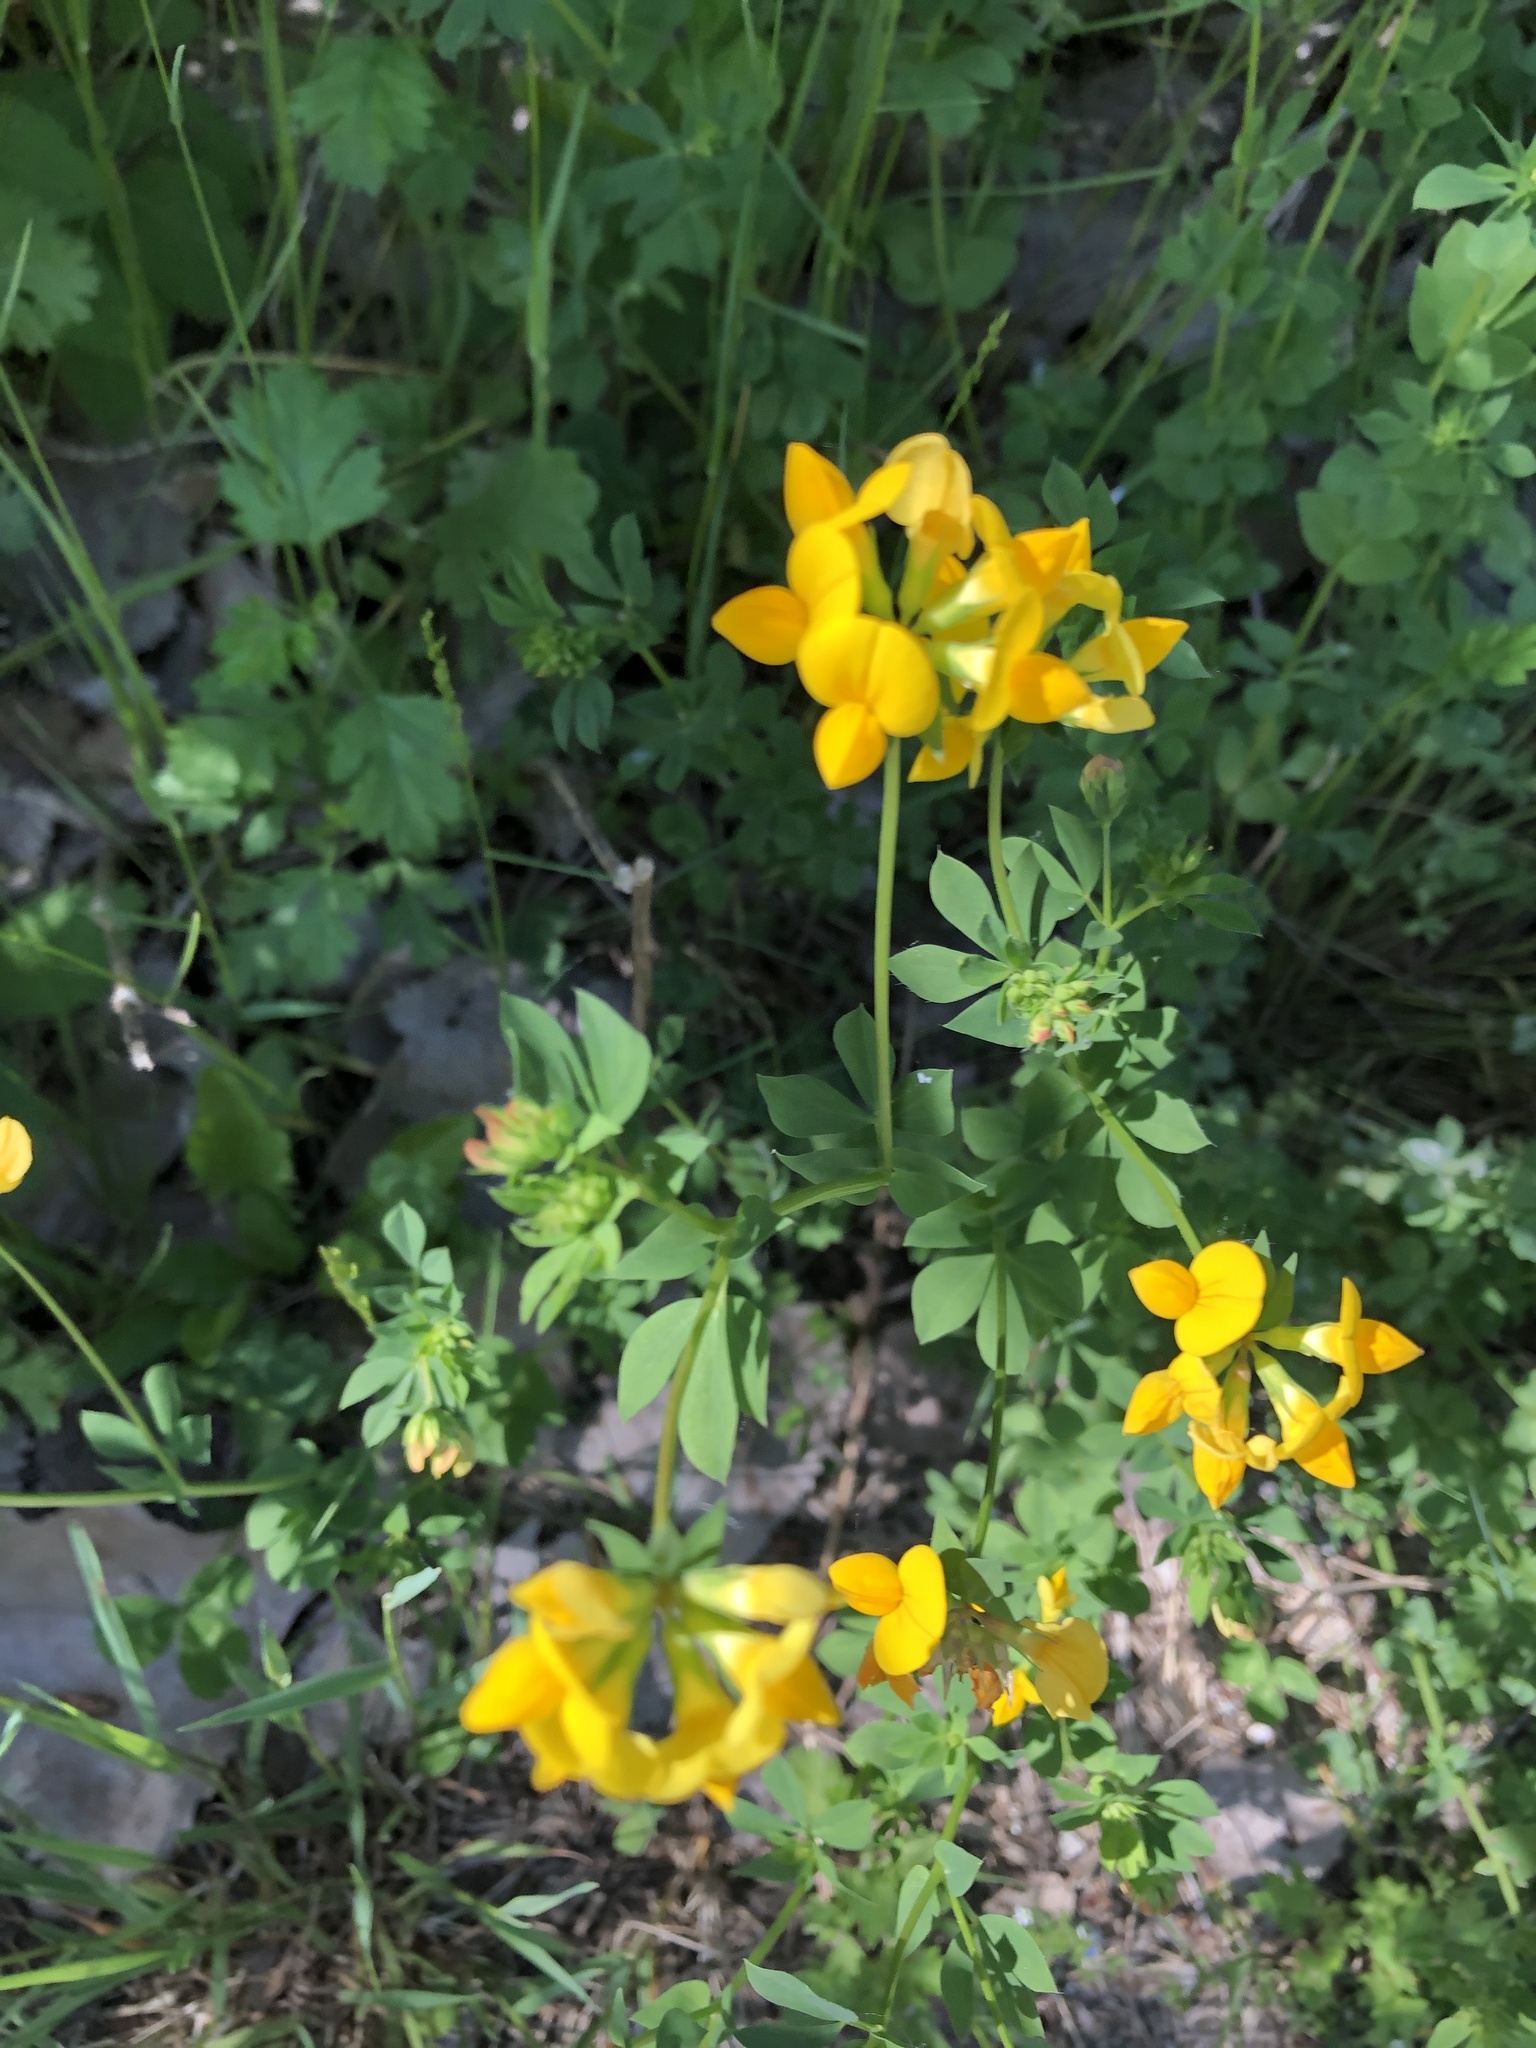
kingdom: Plantae
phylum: Tracheophyta
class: Magnoliopsida
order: Fabales
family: Fabaceae
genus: Lotus
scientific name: Lotus corniculatus
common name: Common bird's-foot-trefoil
